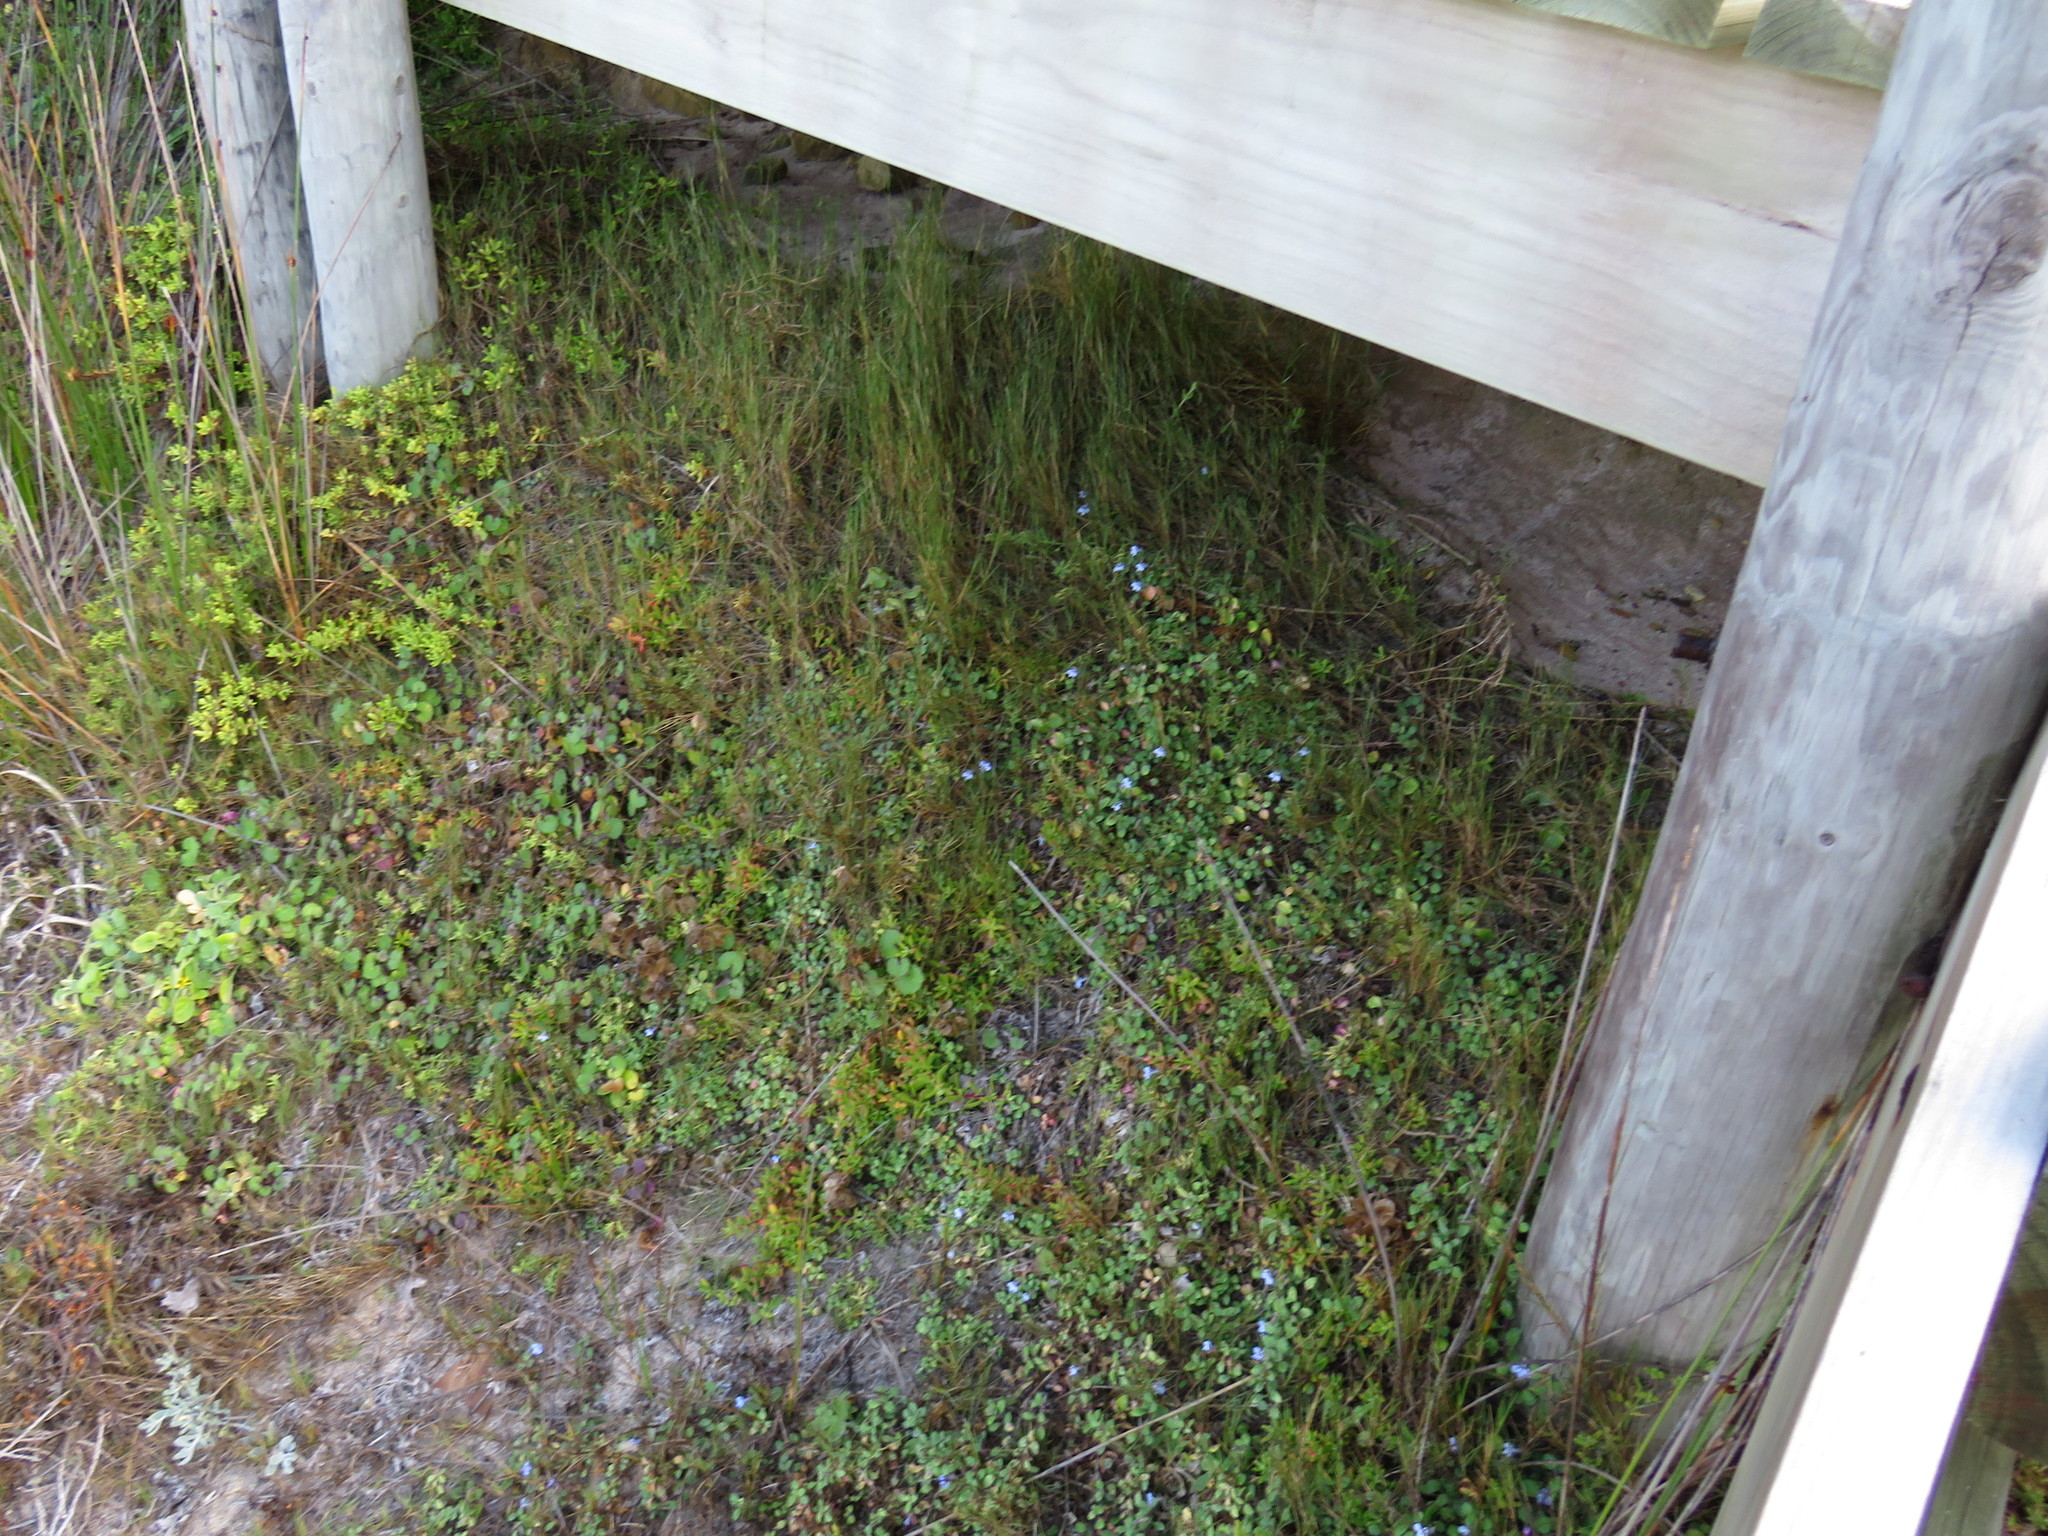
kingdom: Plantae
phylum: Tracheophyta
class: Magnoliopsida
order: Asterales
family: Campanulaceae
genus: Lobelia
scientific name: Lobelia boivinii
